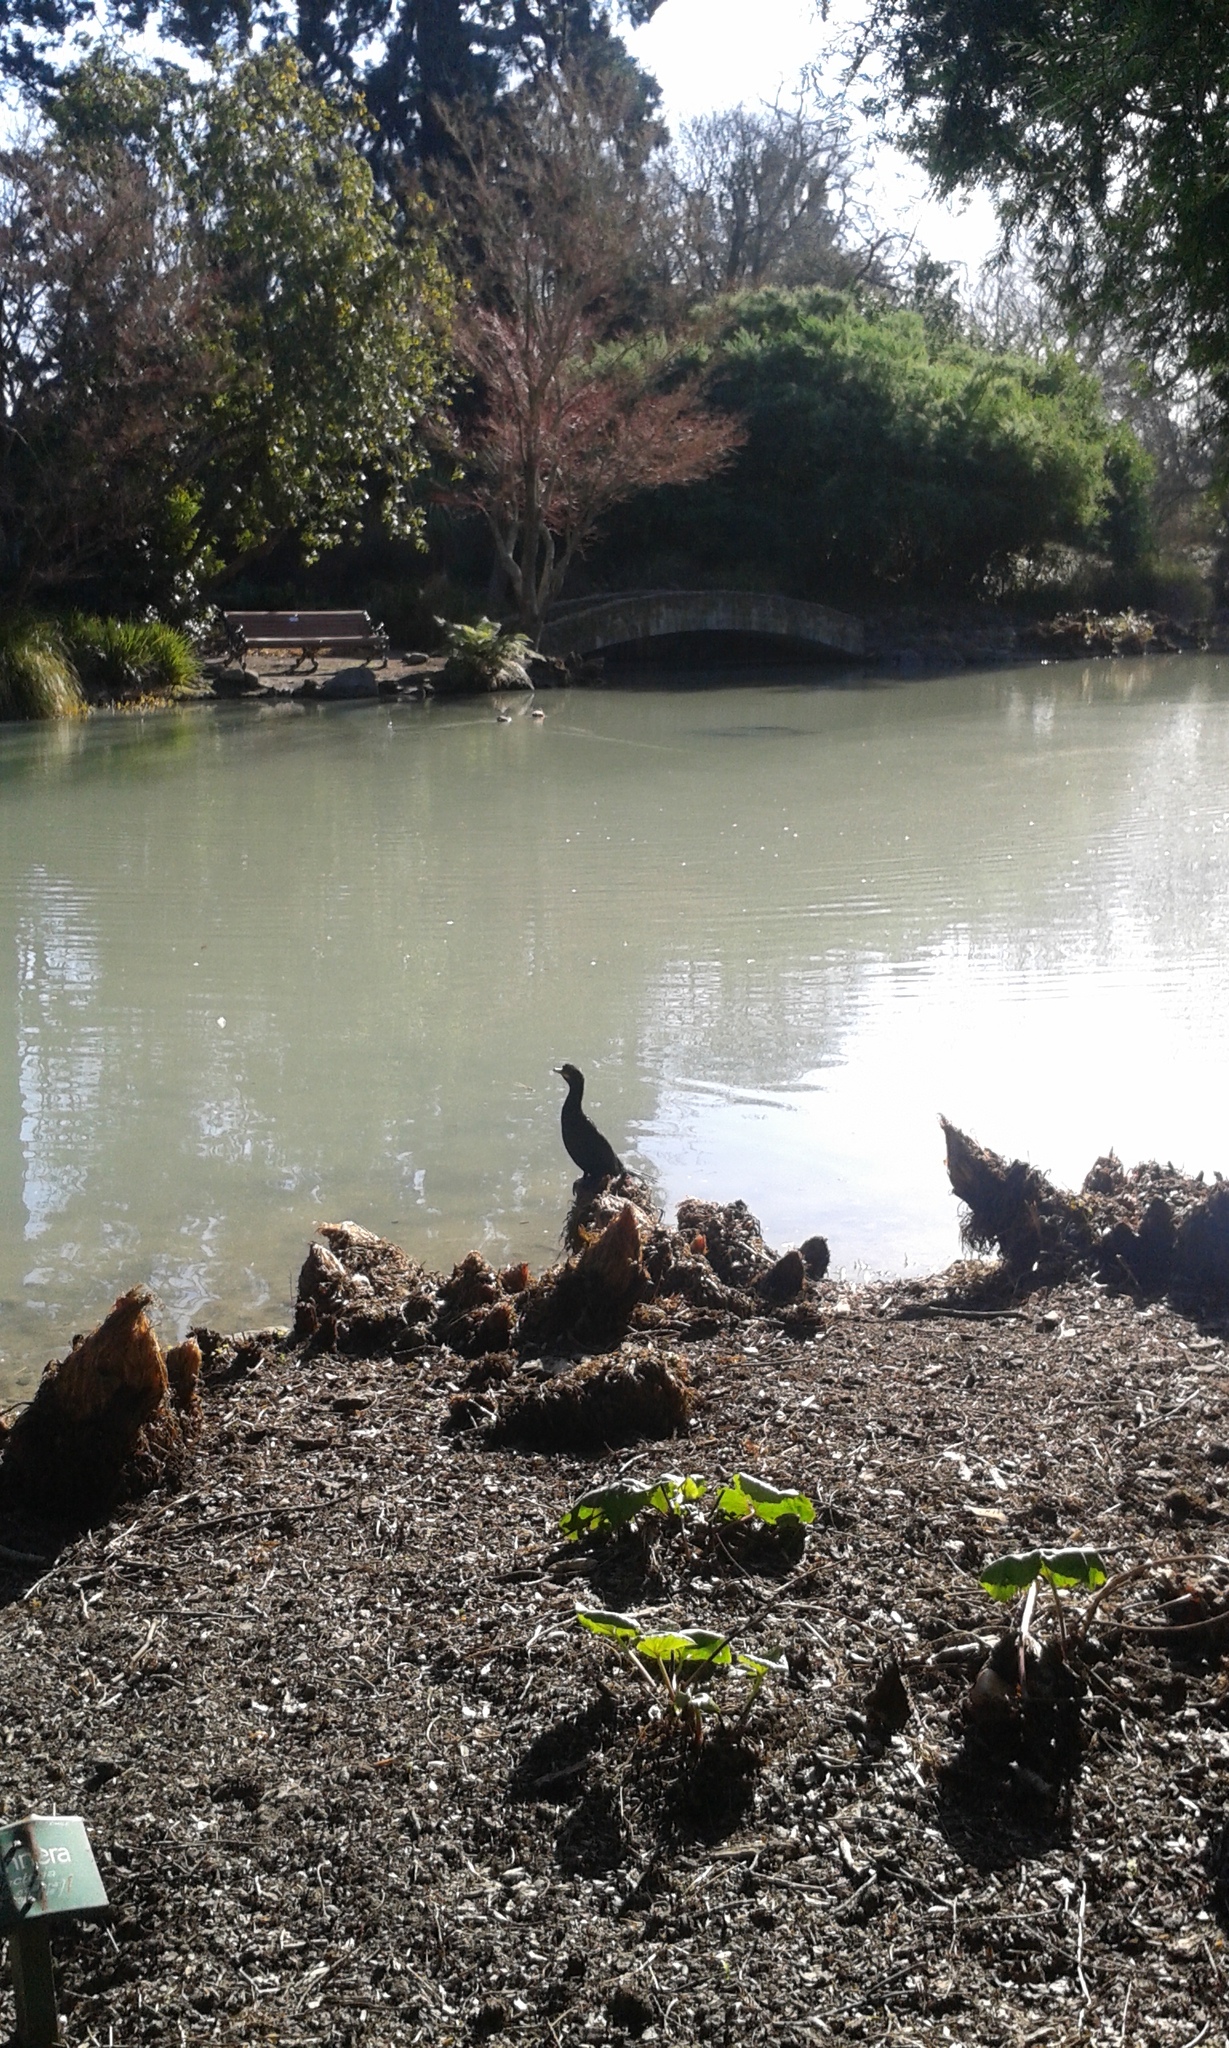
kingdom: Animalia
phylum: Chordata
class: Aves
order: Suliformes
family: Phalacrocoracidae
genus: Microcarbo
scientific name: Microcarbo melanoleucos
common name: Little pied cormorant
